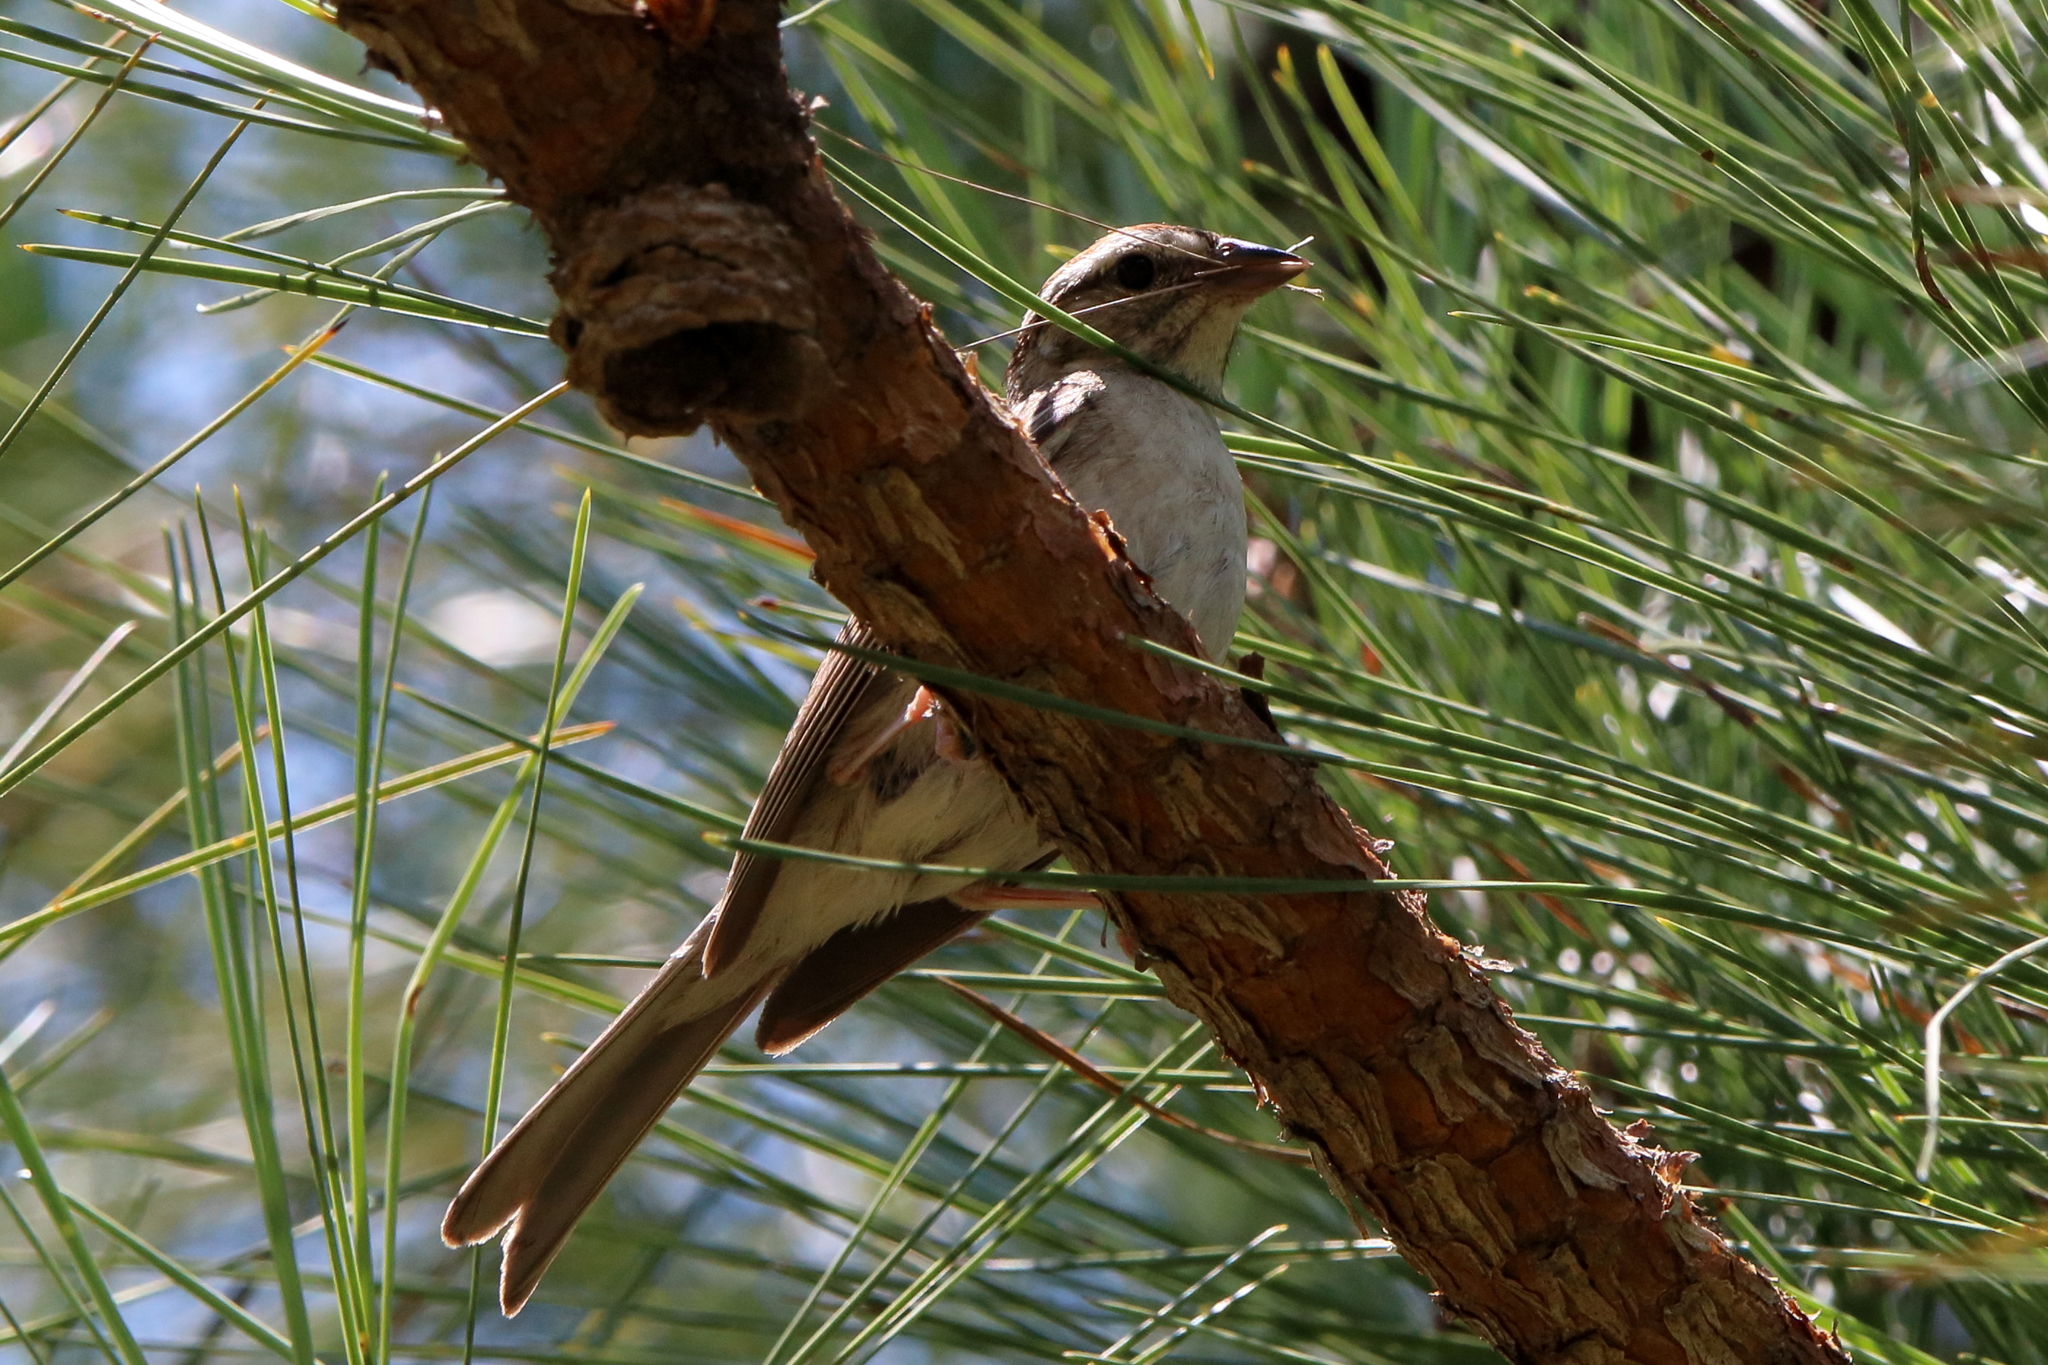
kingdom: Animalia
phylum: Chordata
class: Aves
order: Passeriformes
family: Passerellidae
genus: Spizella
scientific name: Spizella passerina
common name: Chipping sparrow
